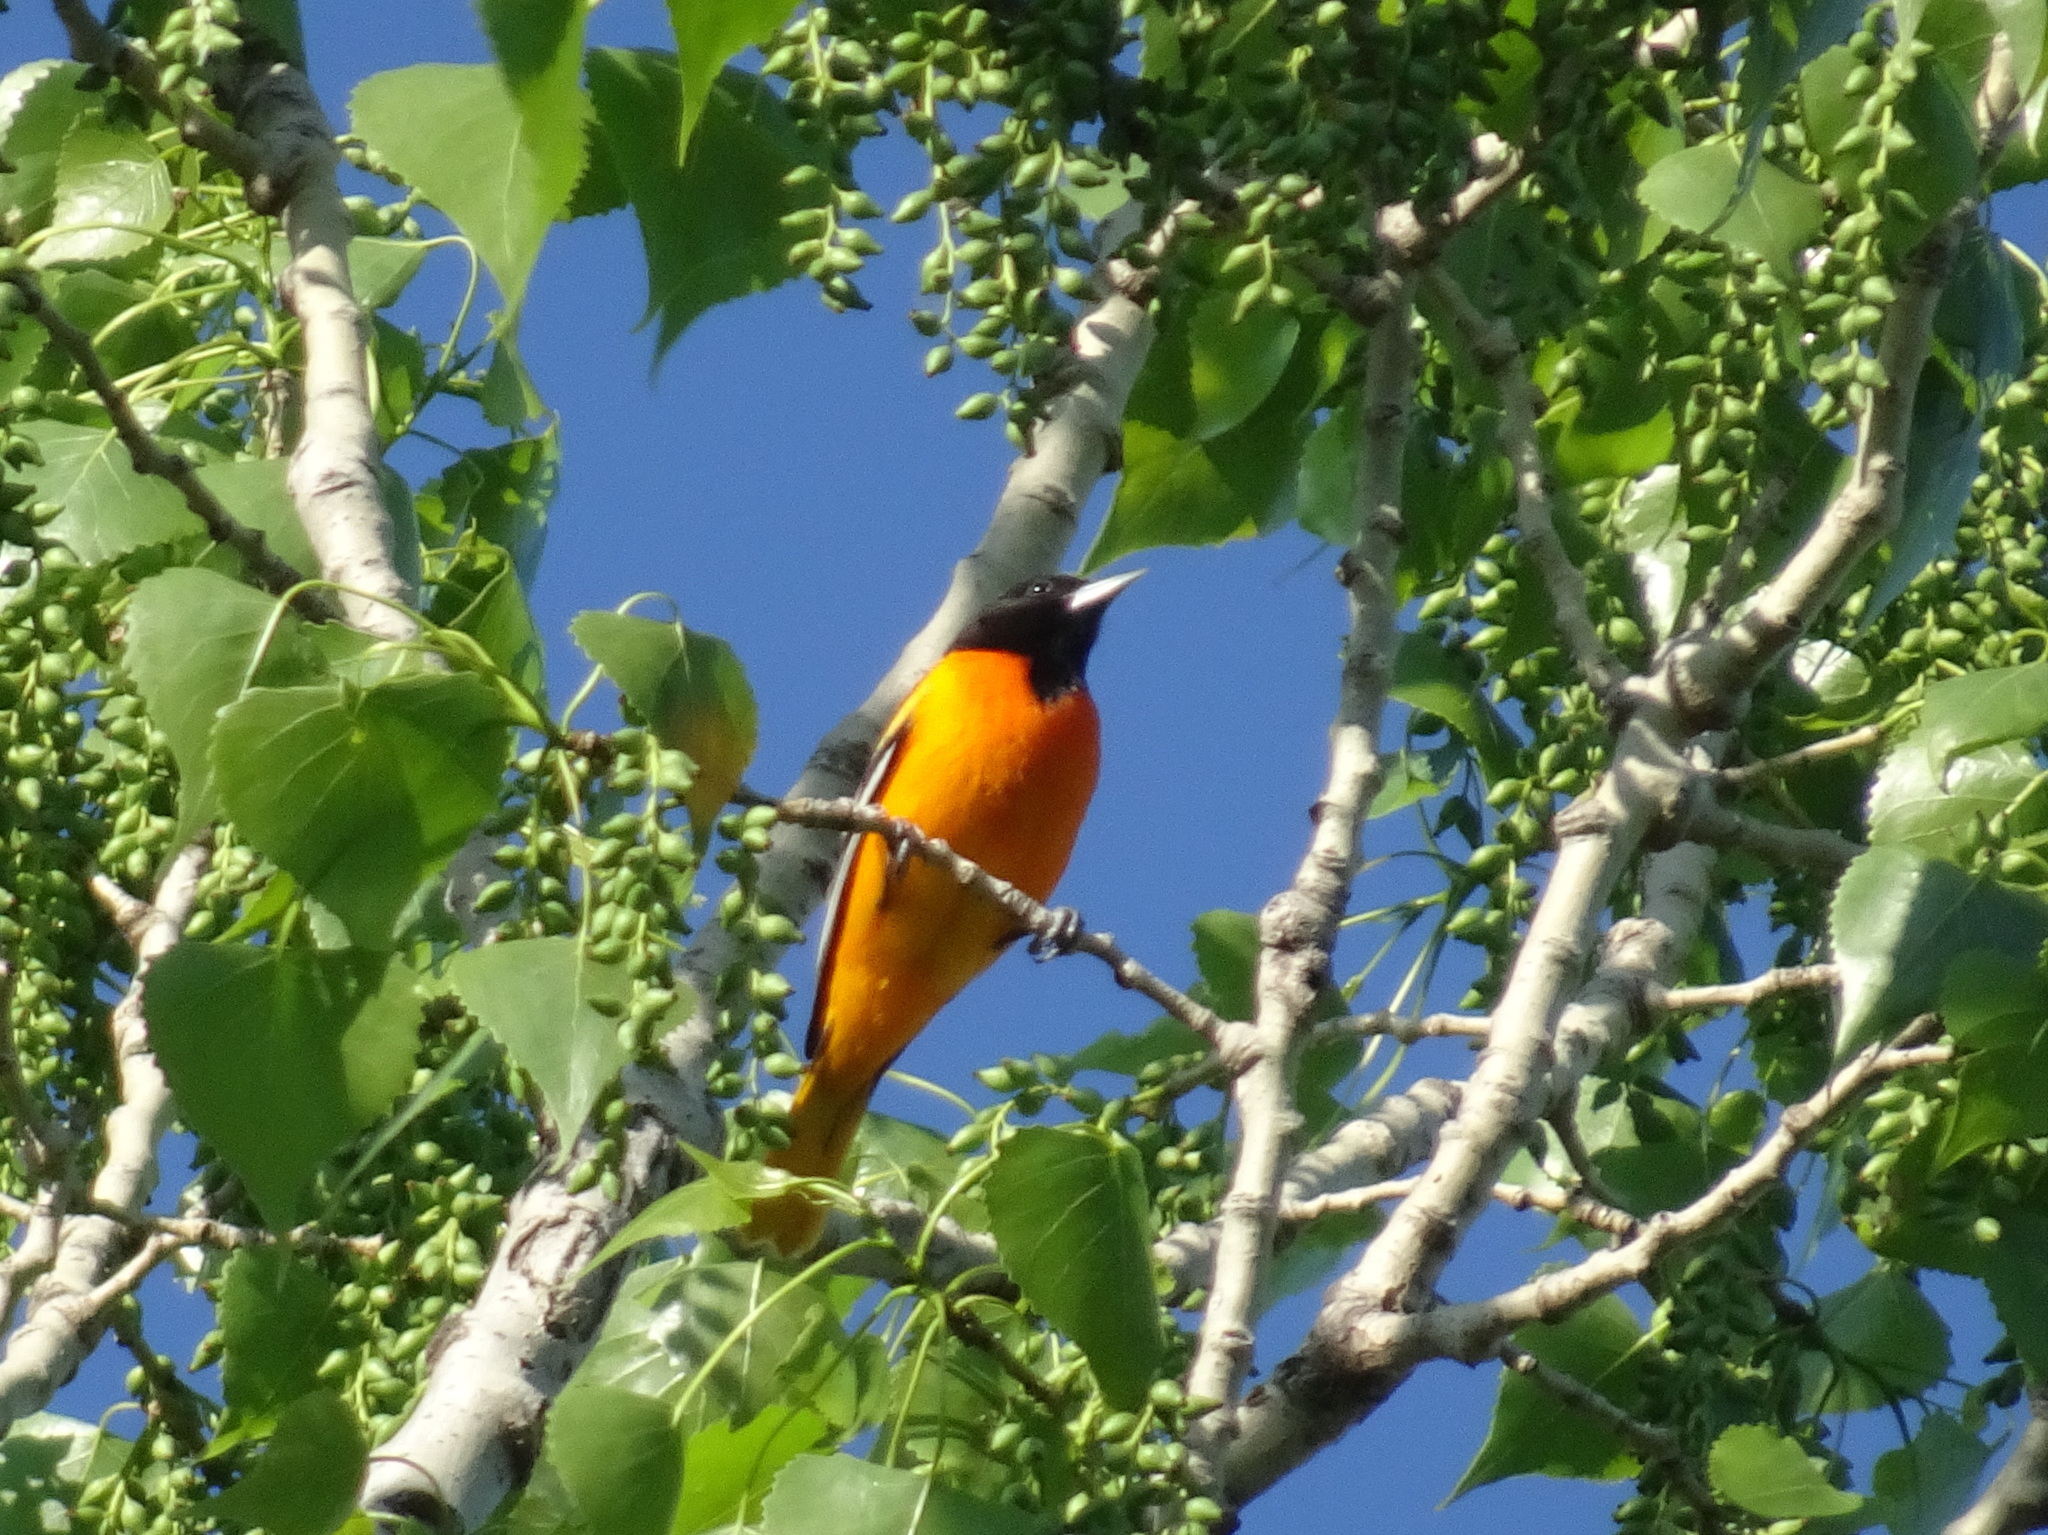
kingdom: Animalia
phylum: Chordata
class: Aves
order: Passeriformes
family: Icteridae
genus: Icterus
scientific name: Icterus galbula
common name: Baltimore oriole
